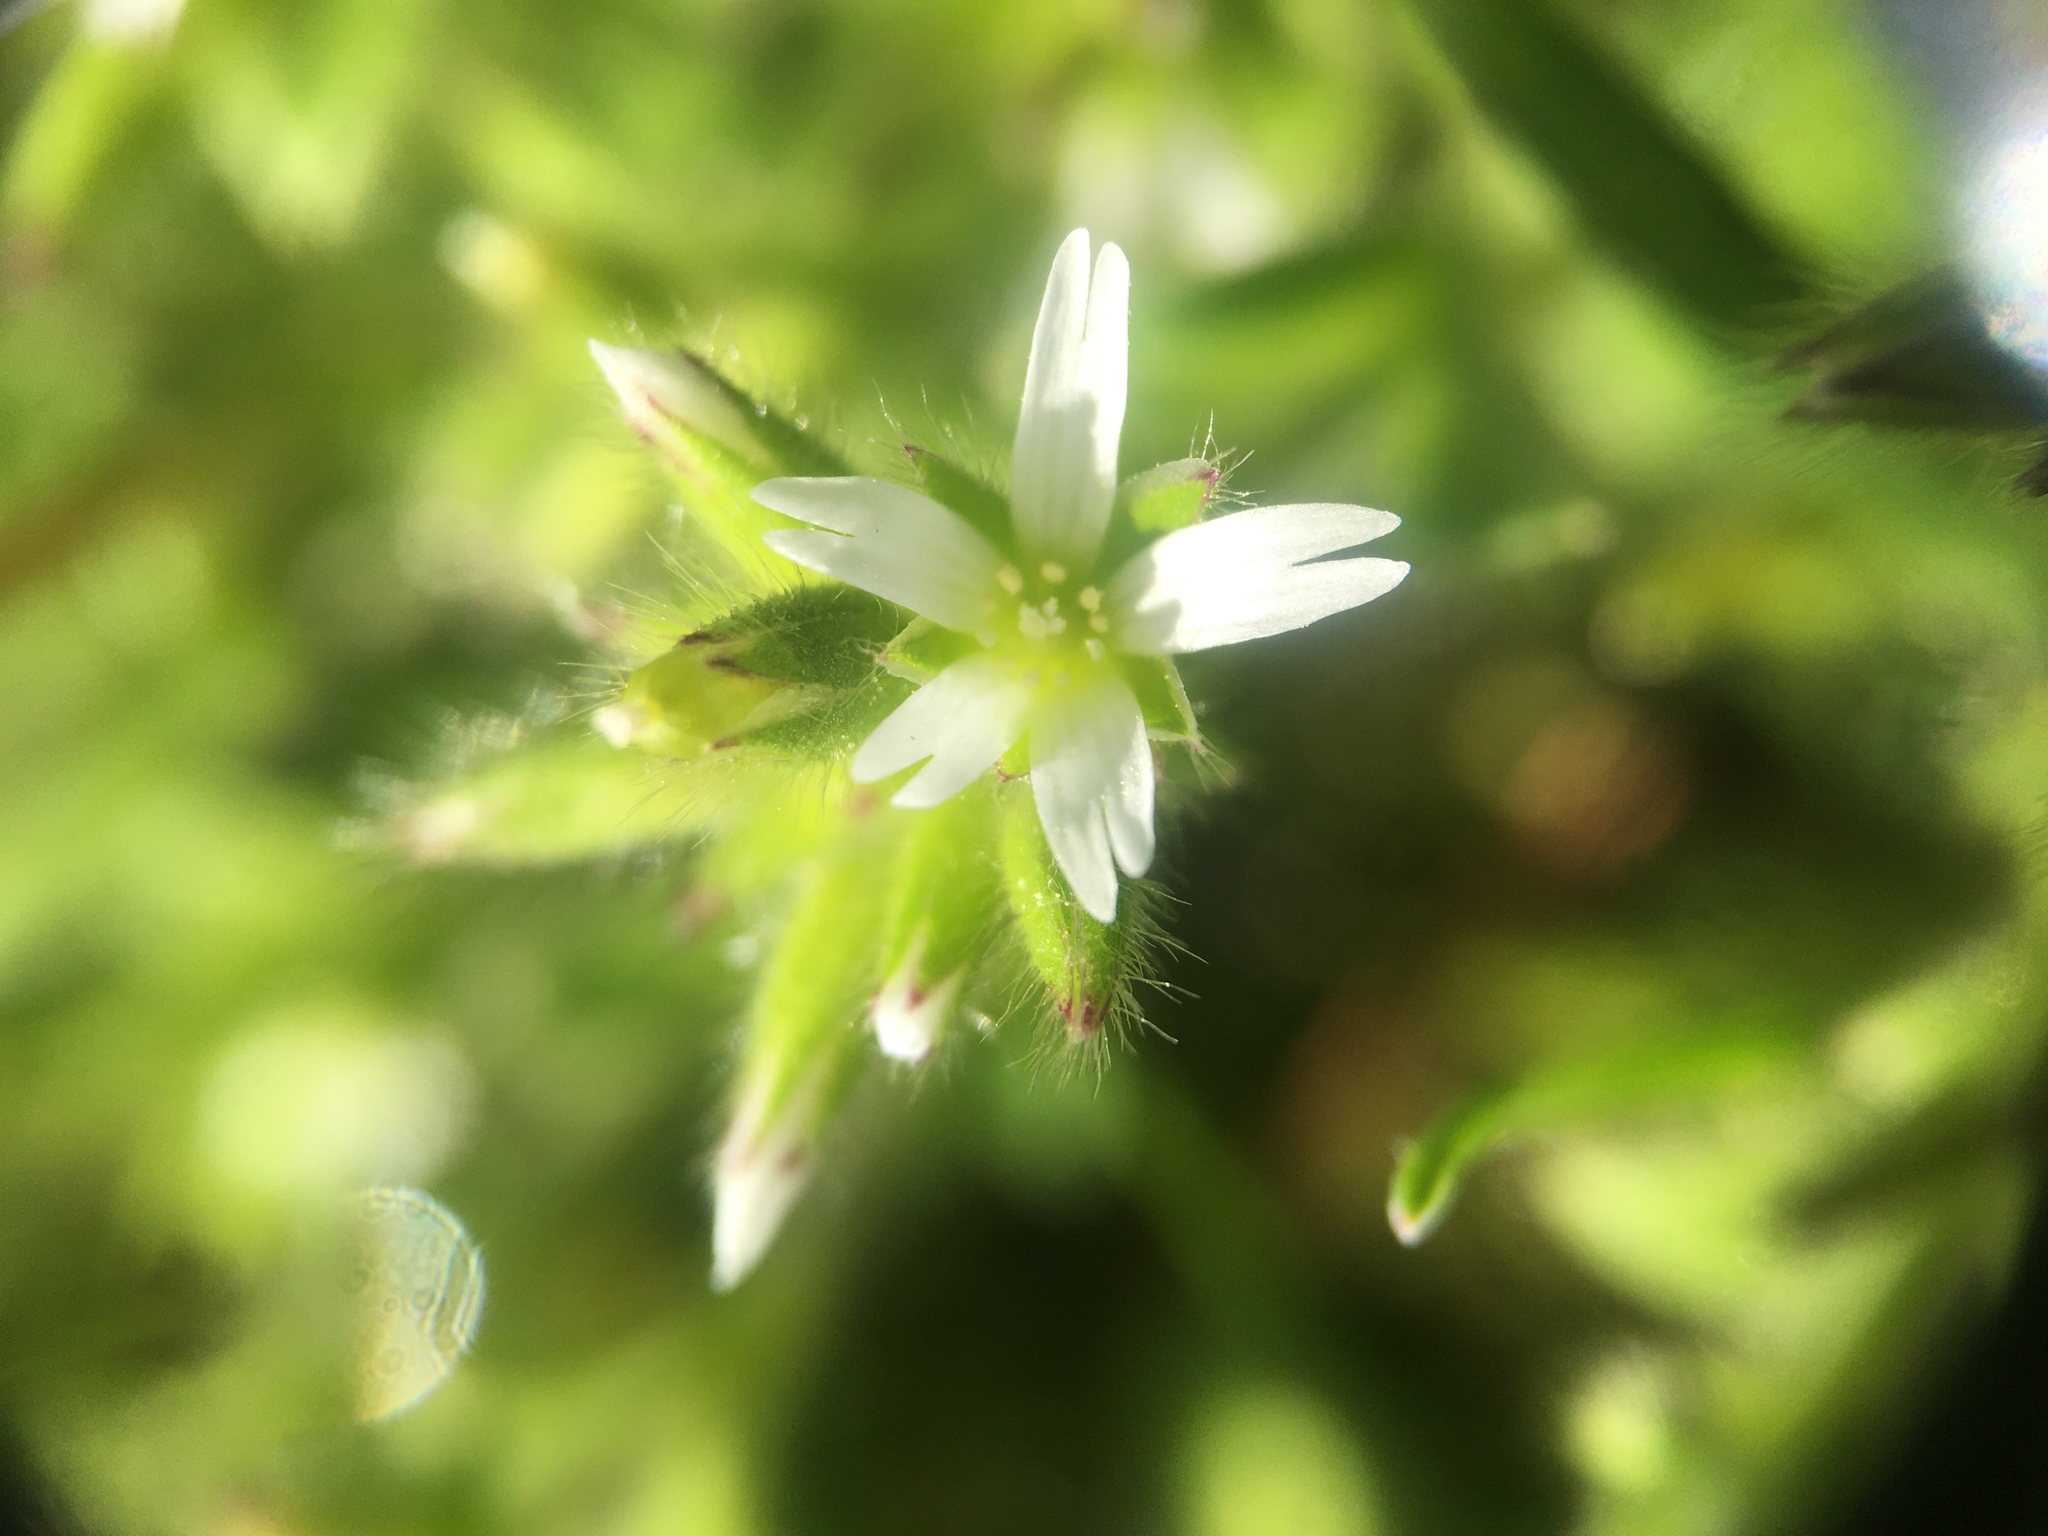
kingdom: Plantae
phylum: Tracheophyta
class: Magnoliopsida
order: Caryophyllales
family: Caryophyllaceae
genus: Cerastium
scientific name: Cerastium glomeratum
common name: Sticky chickweed
